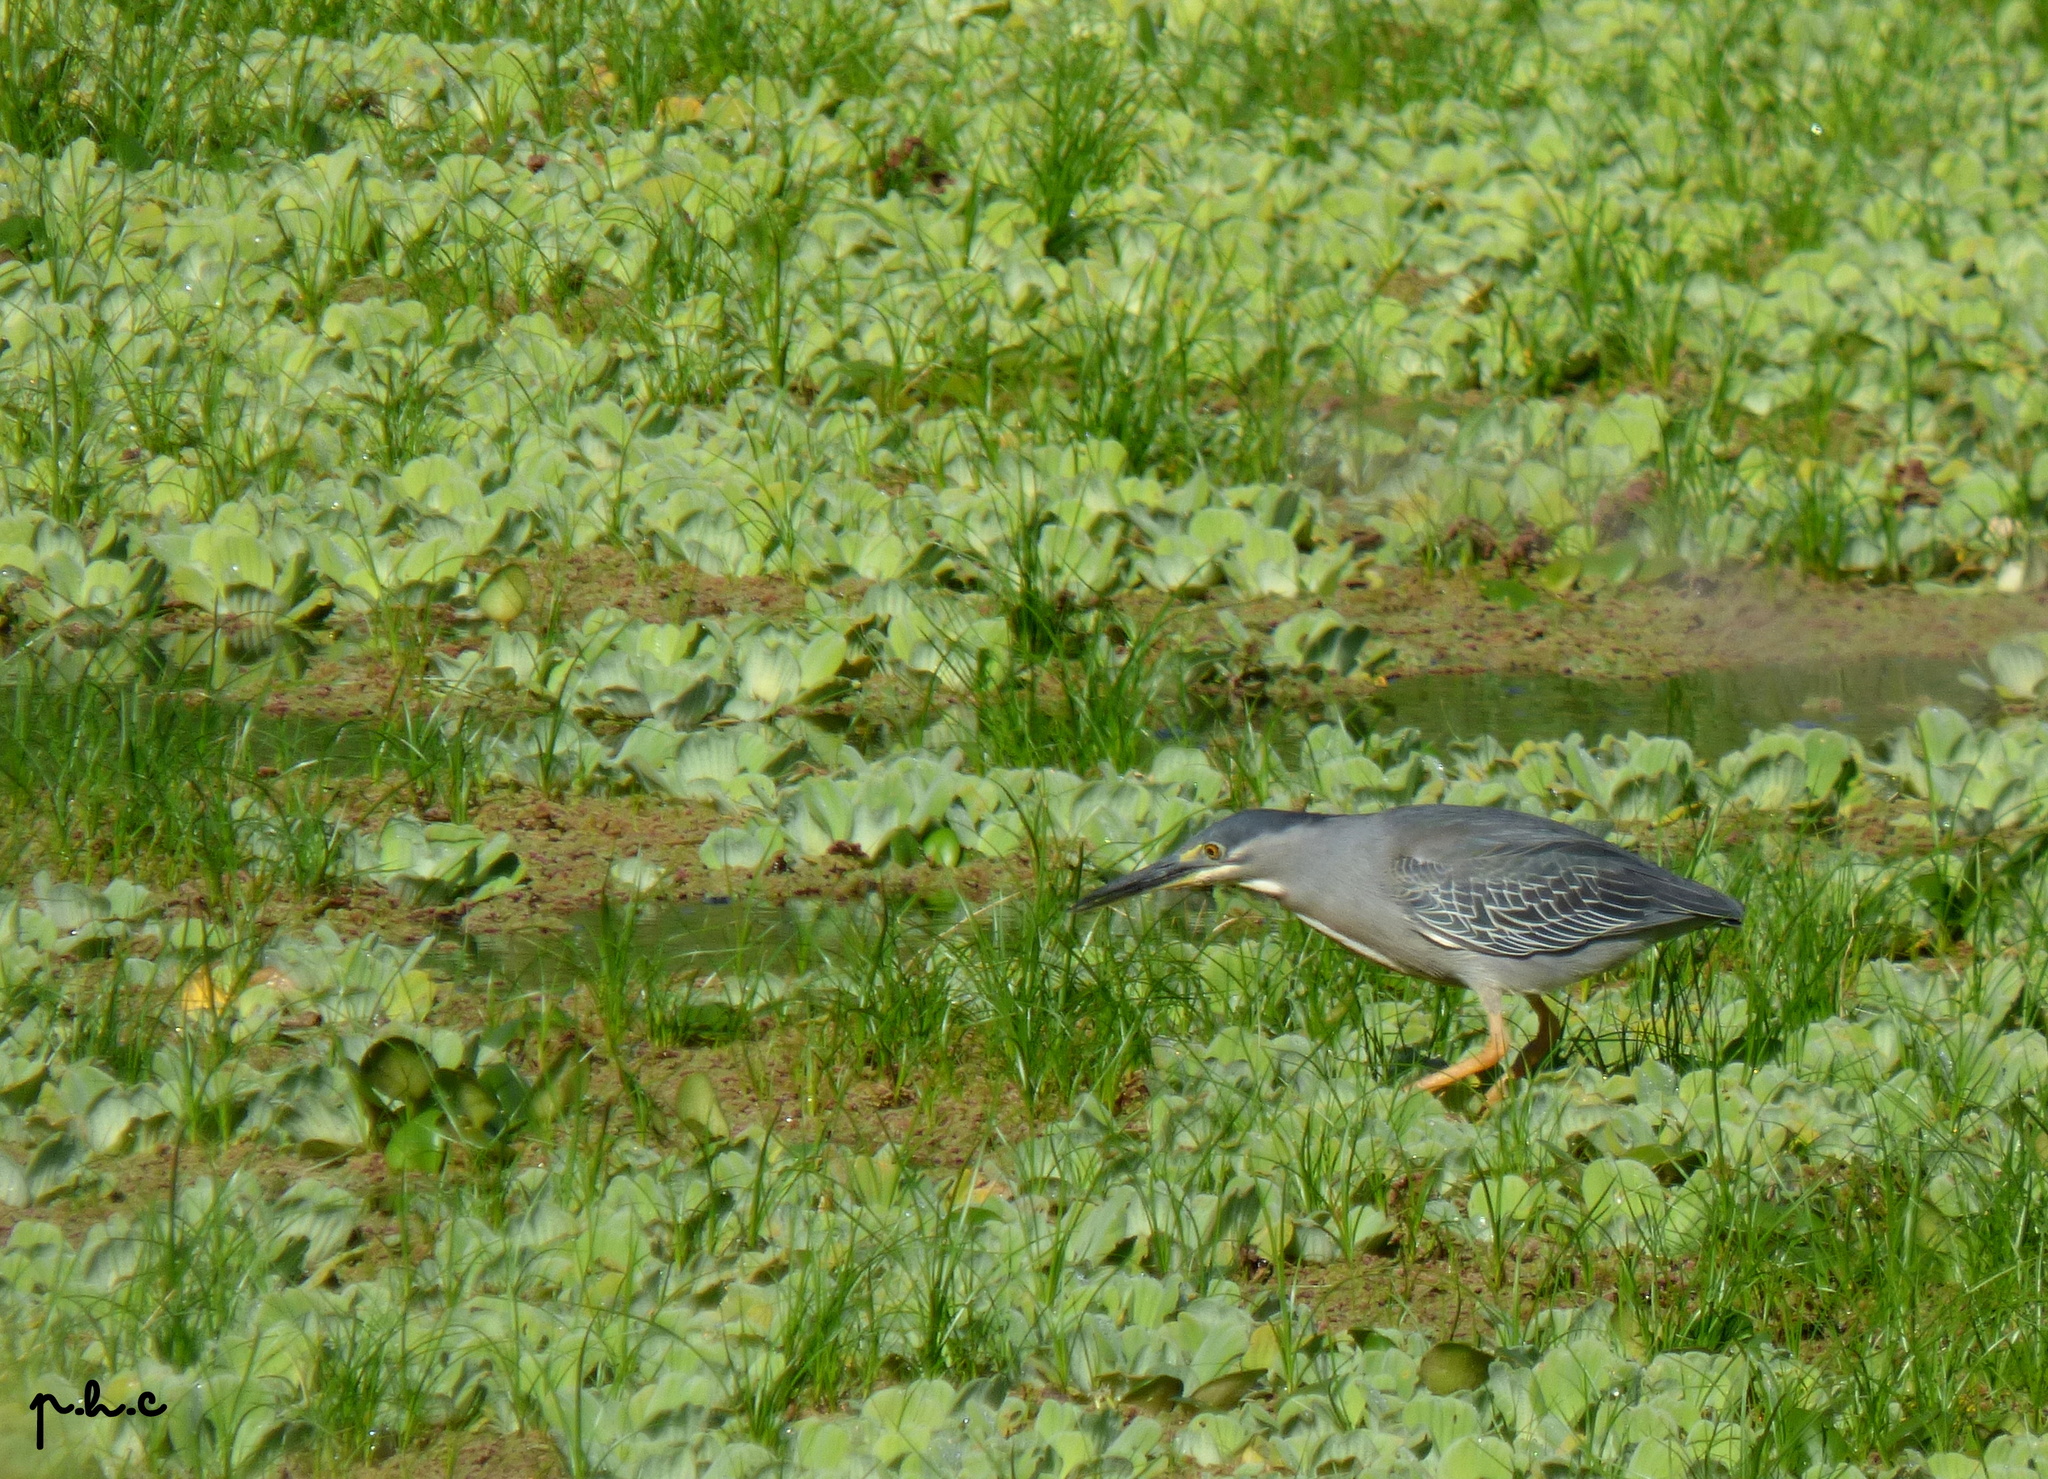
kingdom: Animalia
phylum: Chordata
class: Aves
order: Pelecaniformes
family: Ardeidae
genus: Butorides
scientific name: Butorides striata
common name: Striated heron
